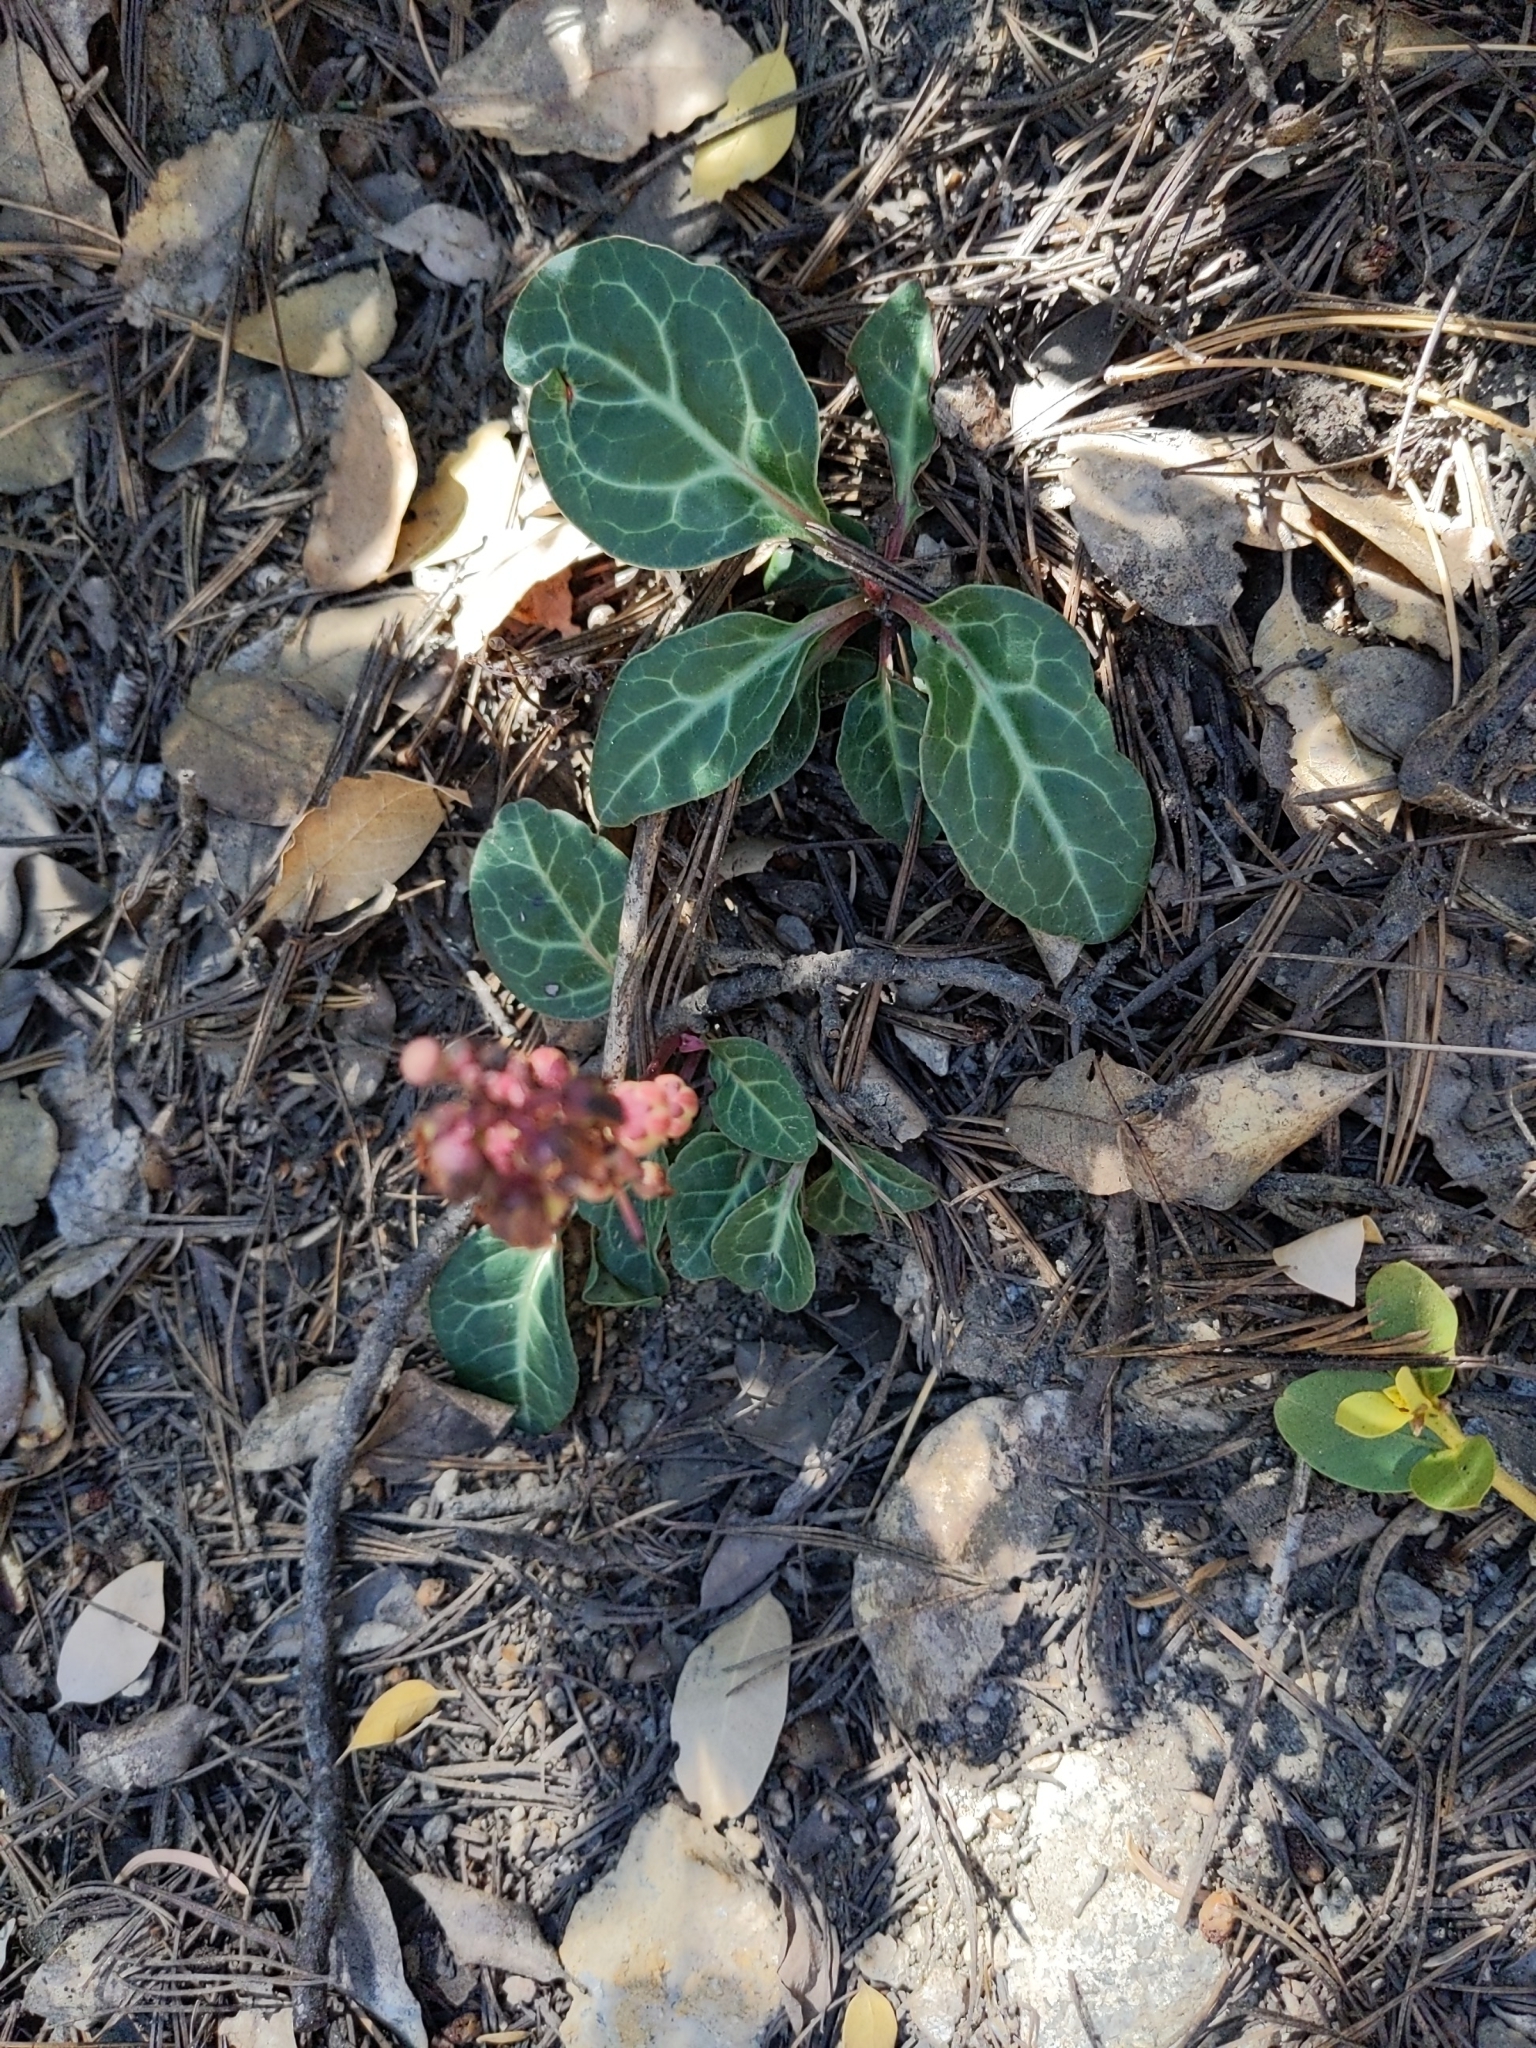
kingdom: Plantae
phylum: Tracheophyta
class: Magnoliopsida
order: Ericales
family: Ericaceae
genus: Pyrola
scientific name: Pyrola picta
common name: White-vein wintergreen
